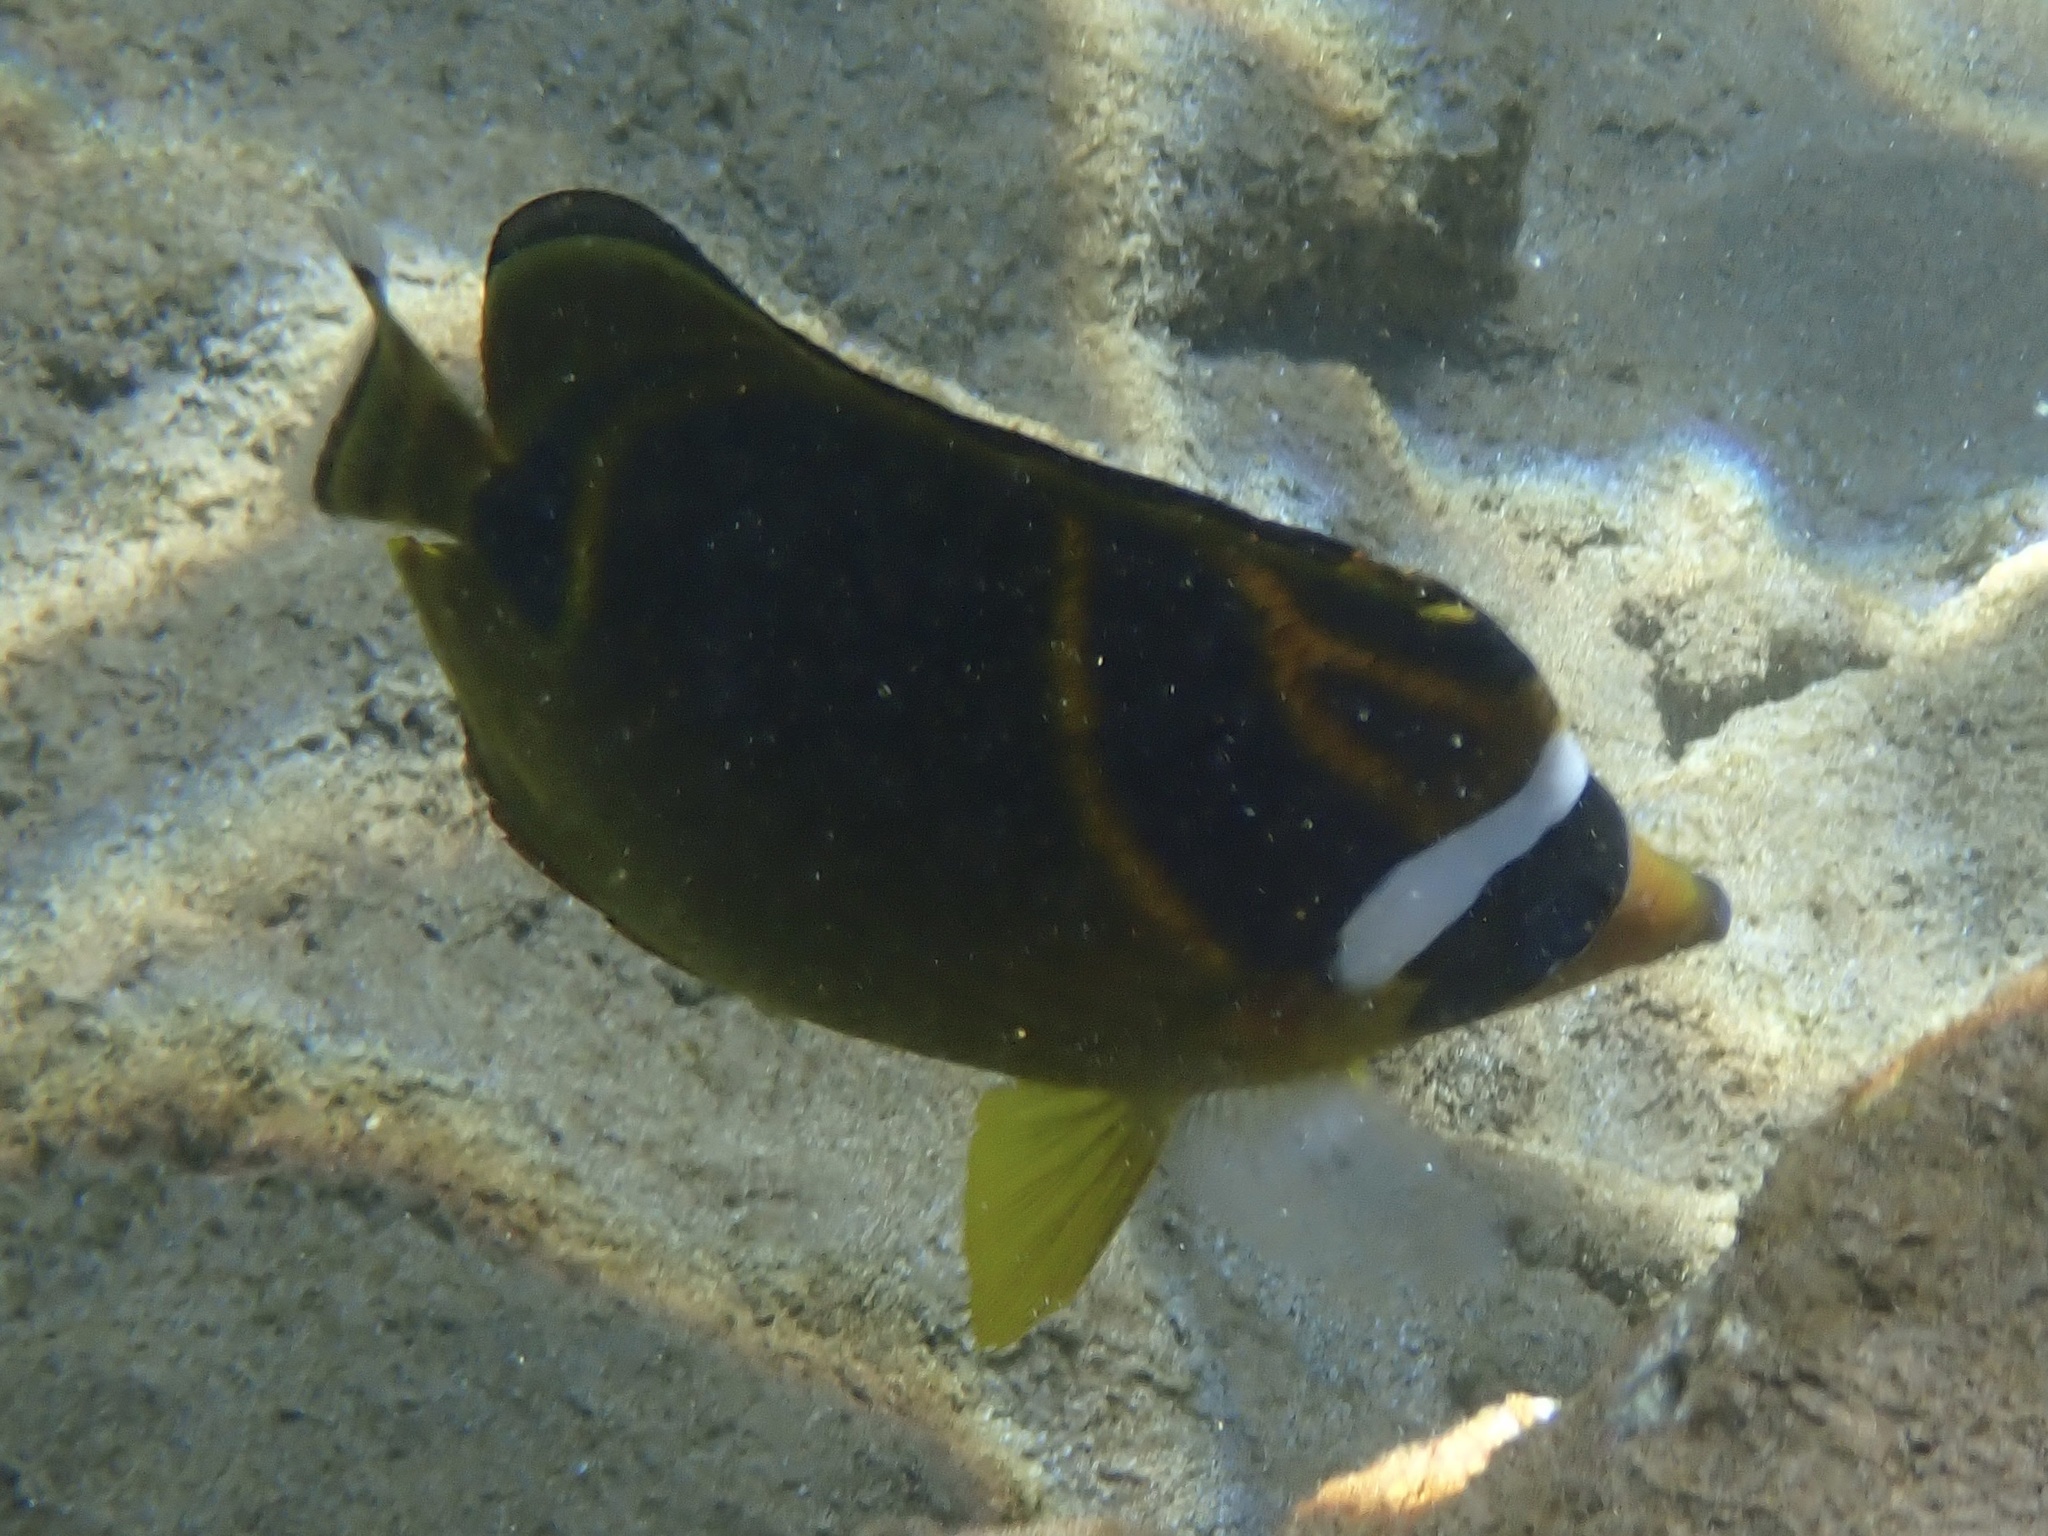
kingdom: Animalia
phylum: Chordata
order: Perciformes
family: Chaetodontidae
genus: Chaetodon
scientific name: Chaetodon lunula
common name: Raccoon butterflyfish
